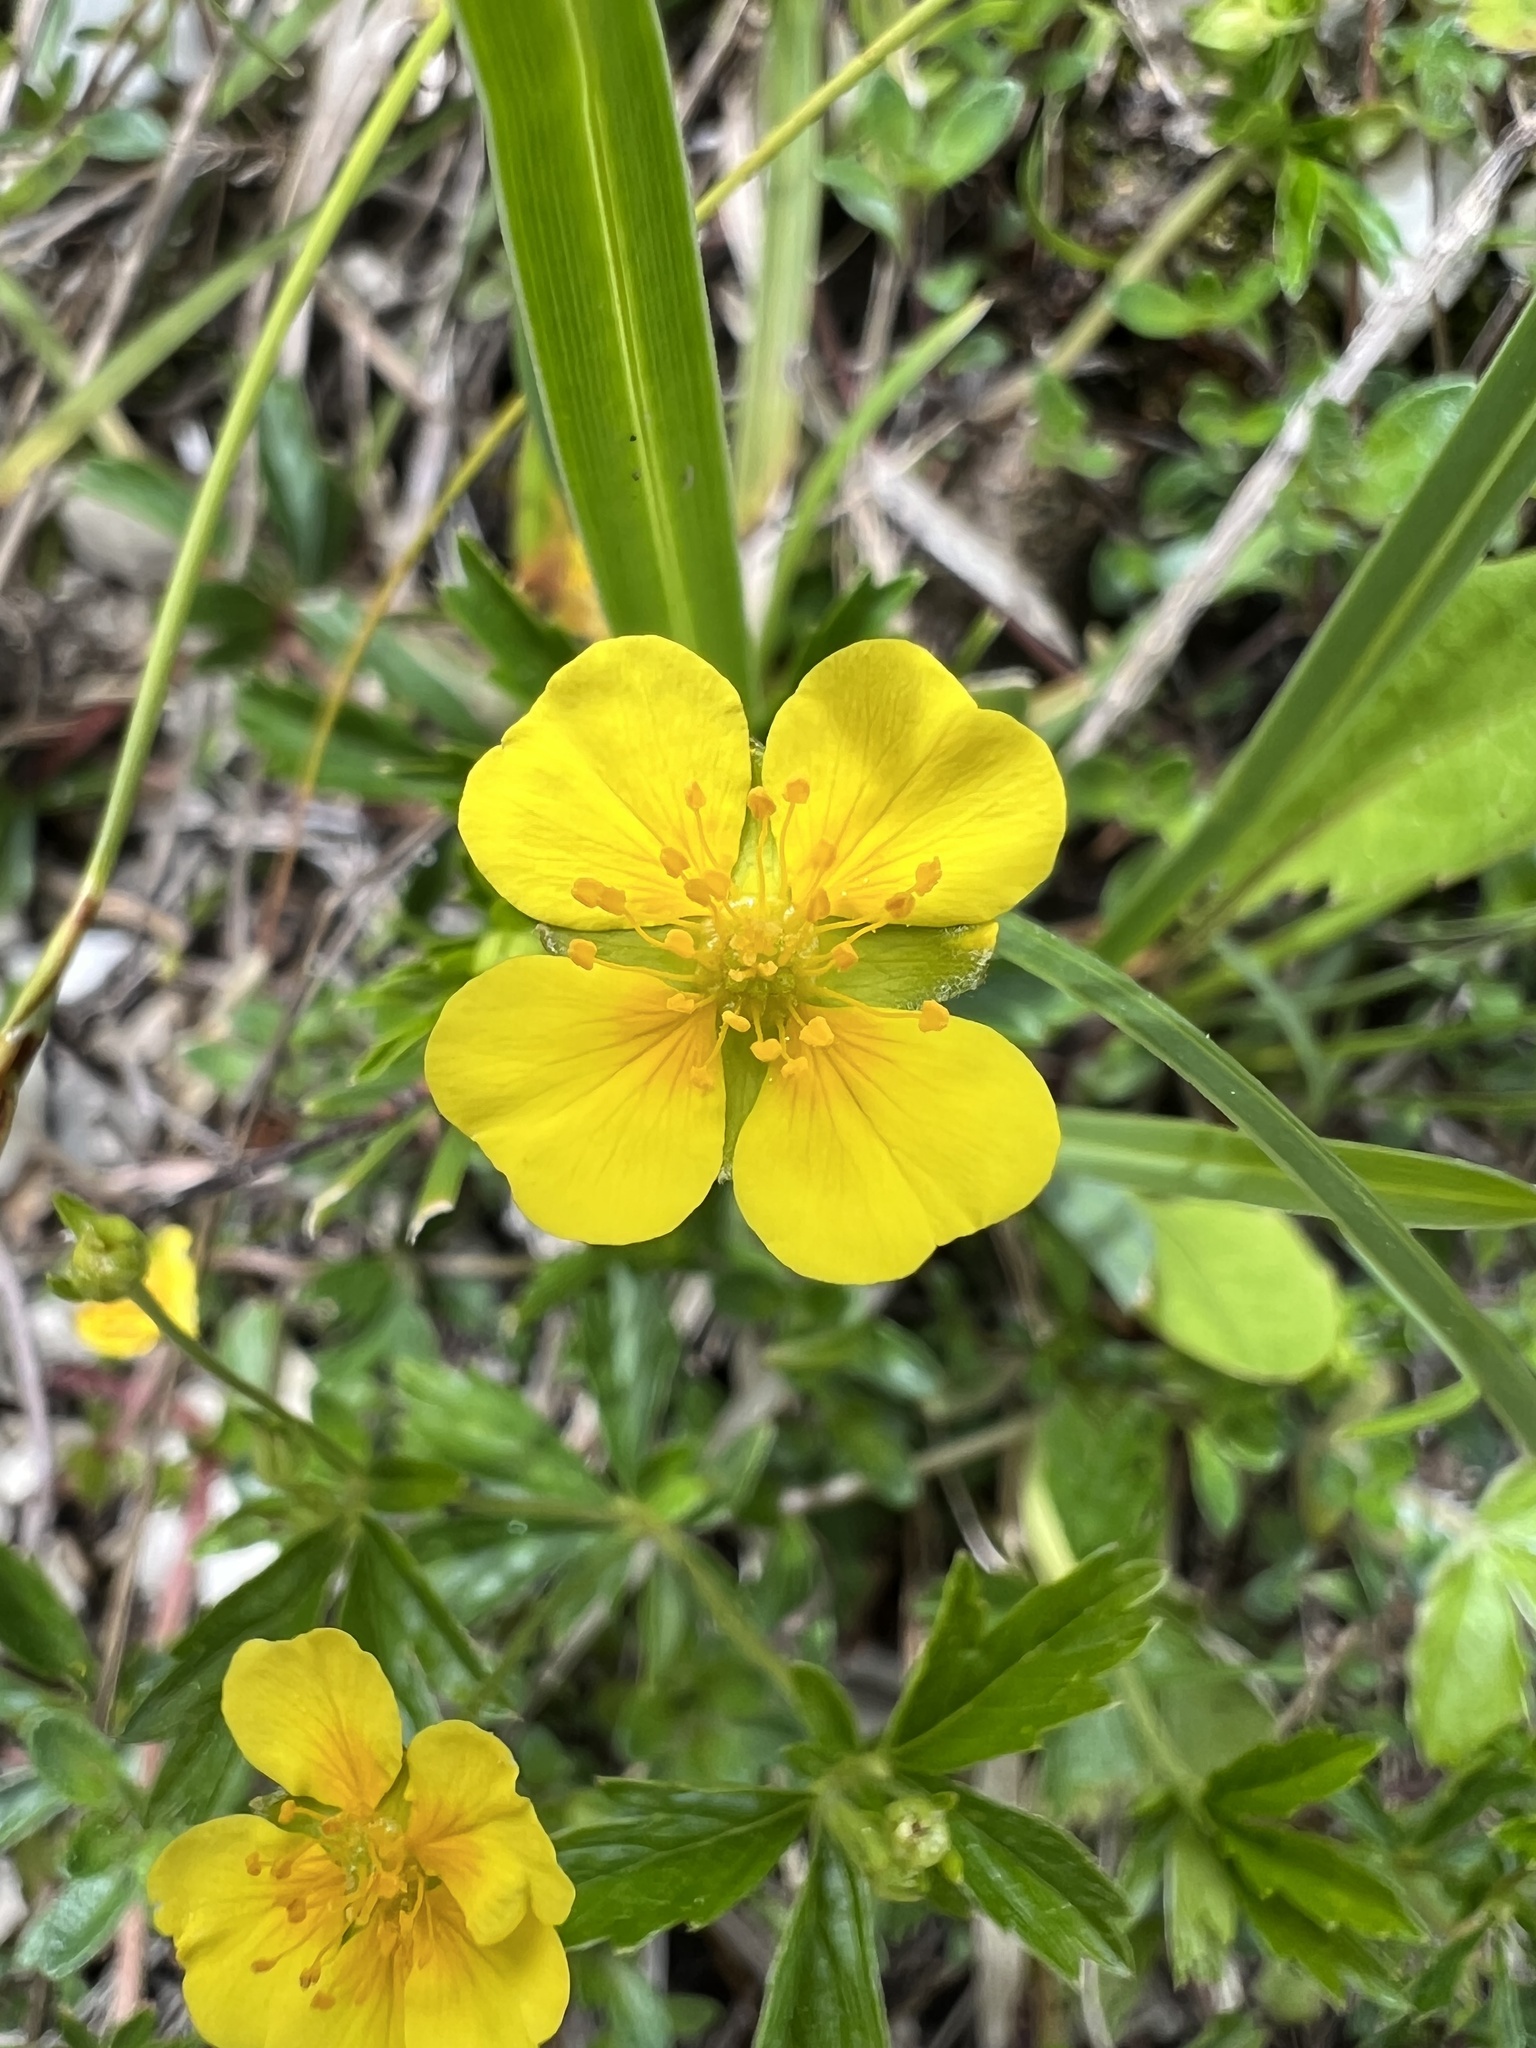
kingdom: Plantae
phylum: Tracheophyta
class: Magnoliopsida
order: Rosales
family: Rosaceae
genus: Potentilla
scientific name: Potentilla erecta
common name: Tormentil
